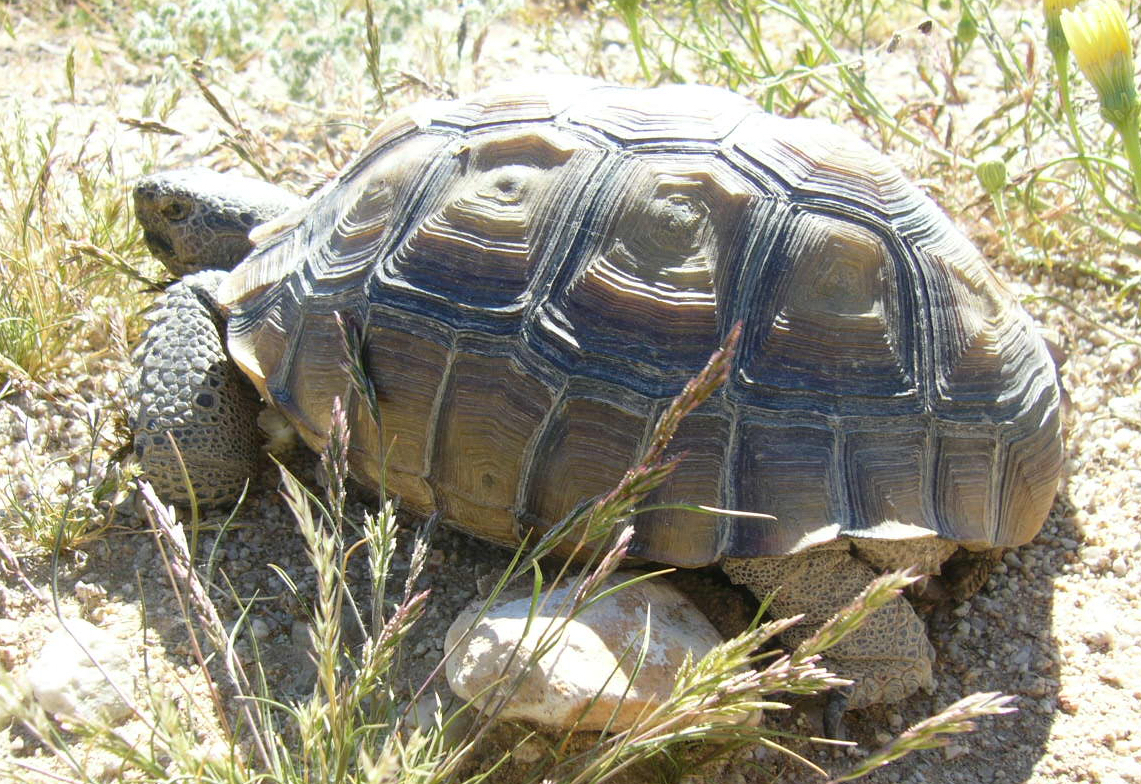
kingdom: Animalia
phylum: Chordata
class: Testudines
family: Testudinidae
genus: Gopherus
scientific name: Gopherus agassizii
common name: Mojave desert tortoise
